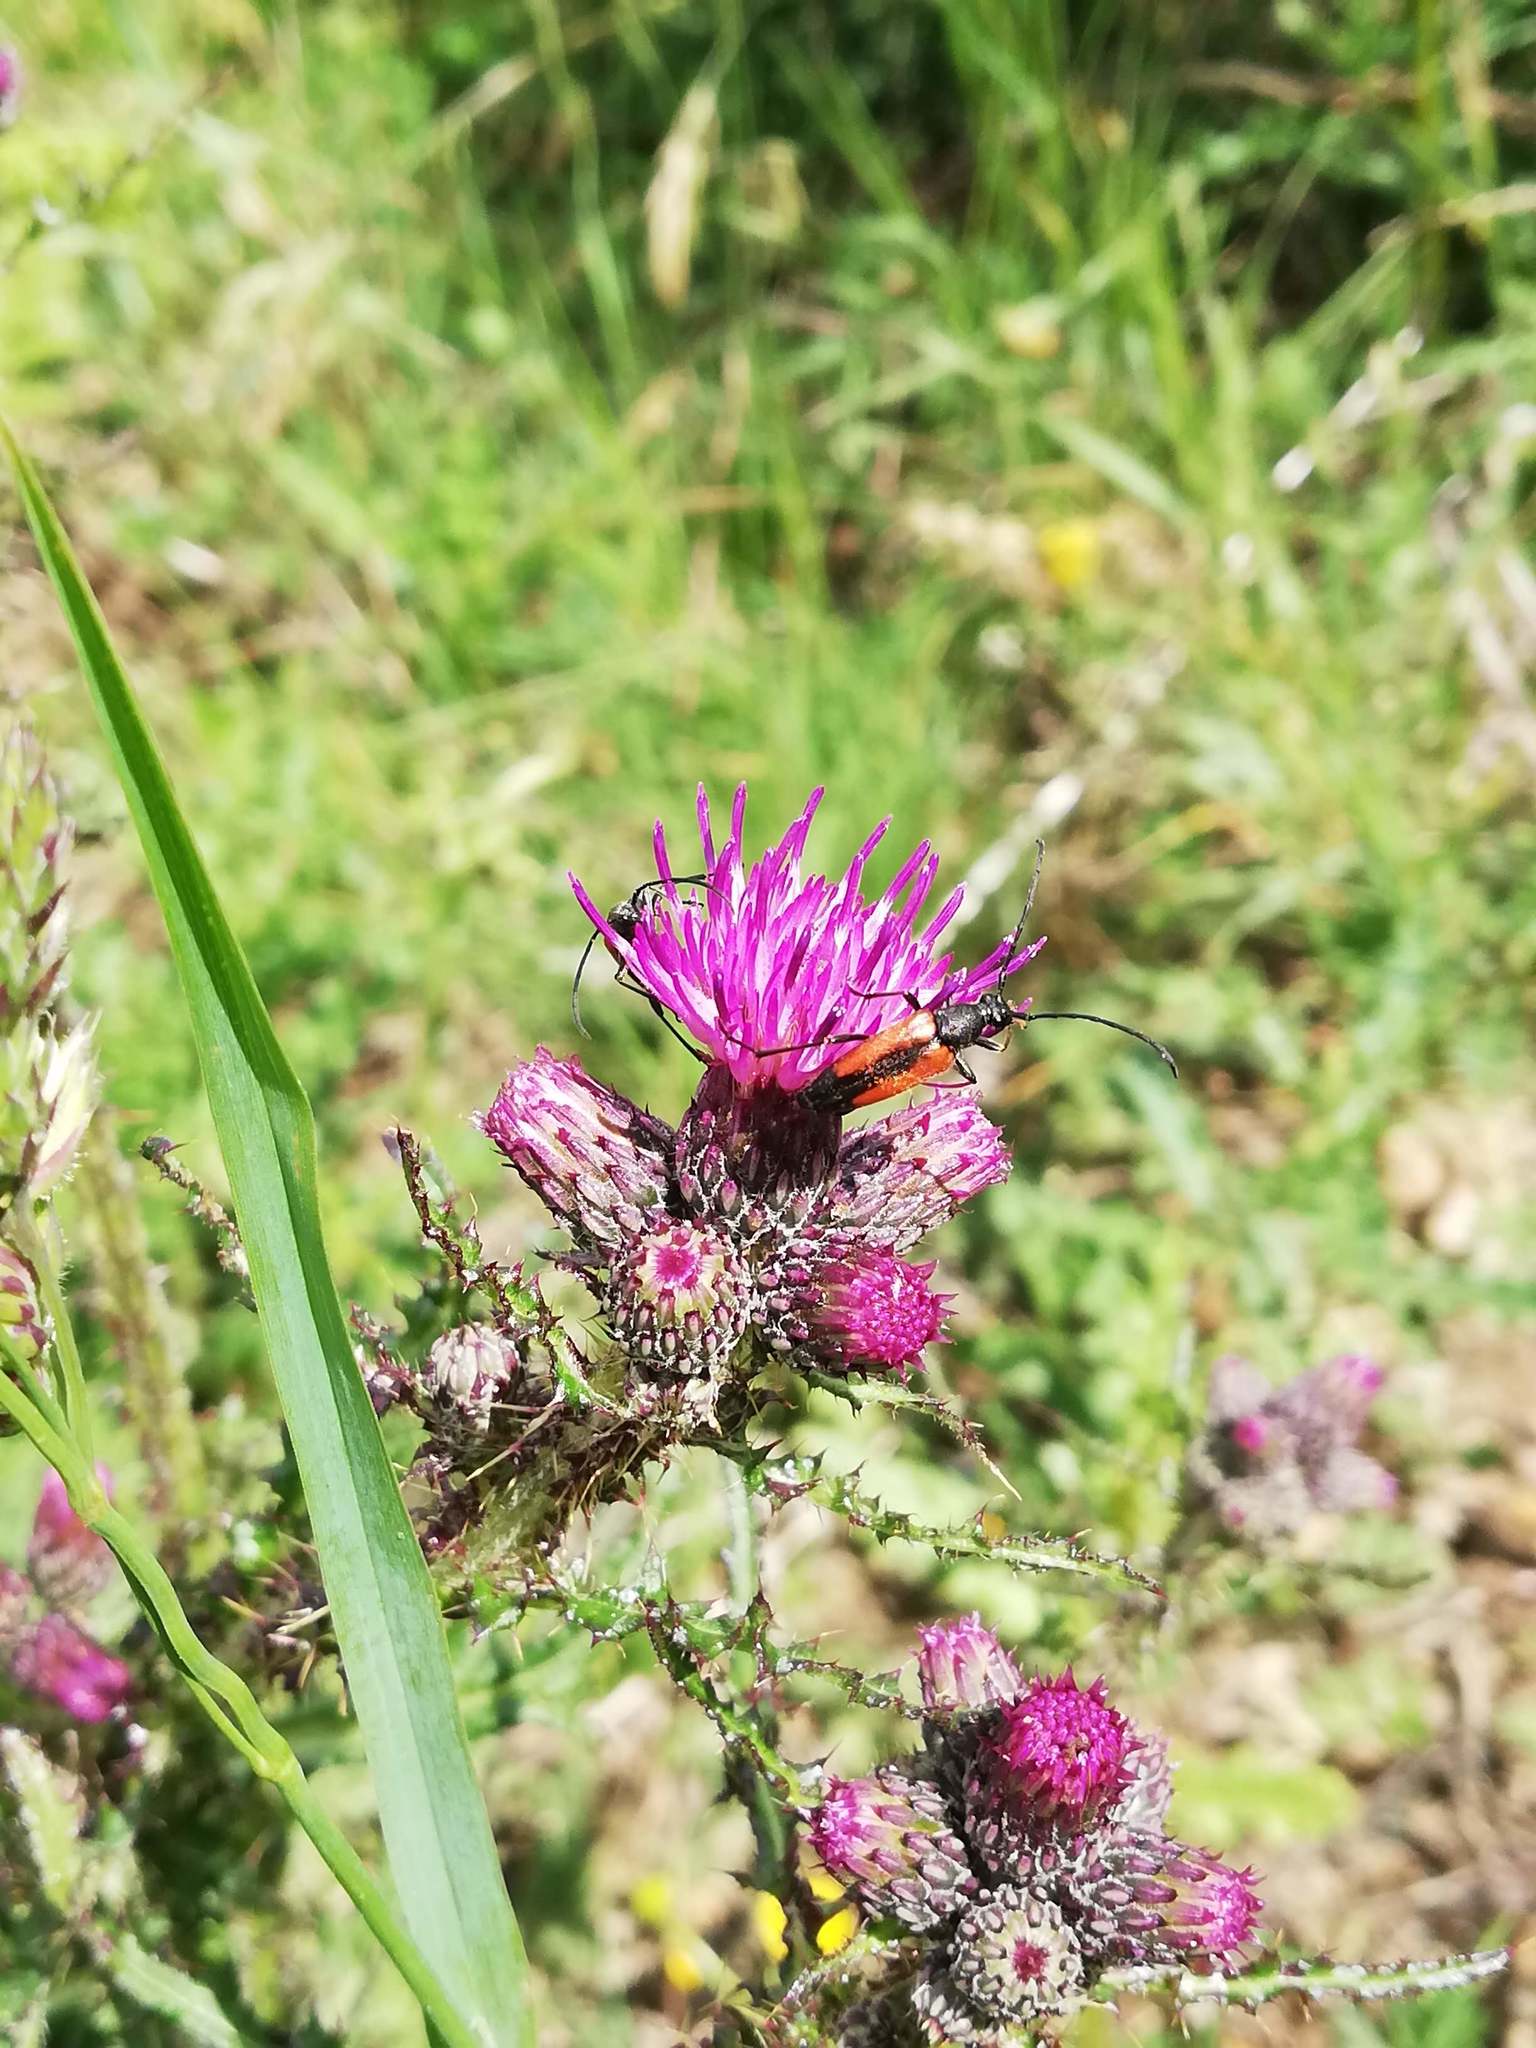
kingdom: Animalia
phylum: Arthropoda
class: Insecta
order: Coleoptera
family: Cerambycidae
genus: Stenurella
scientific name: Stenurella melanura
